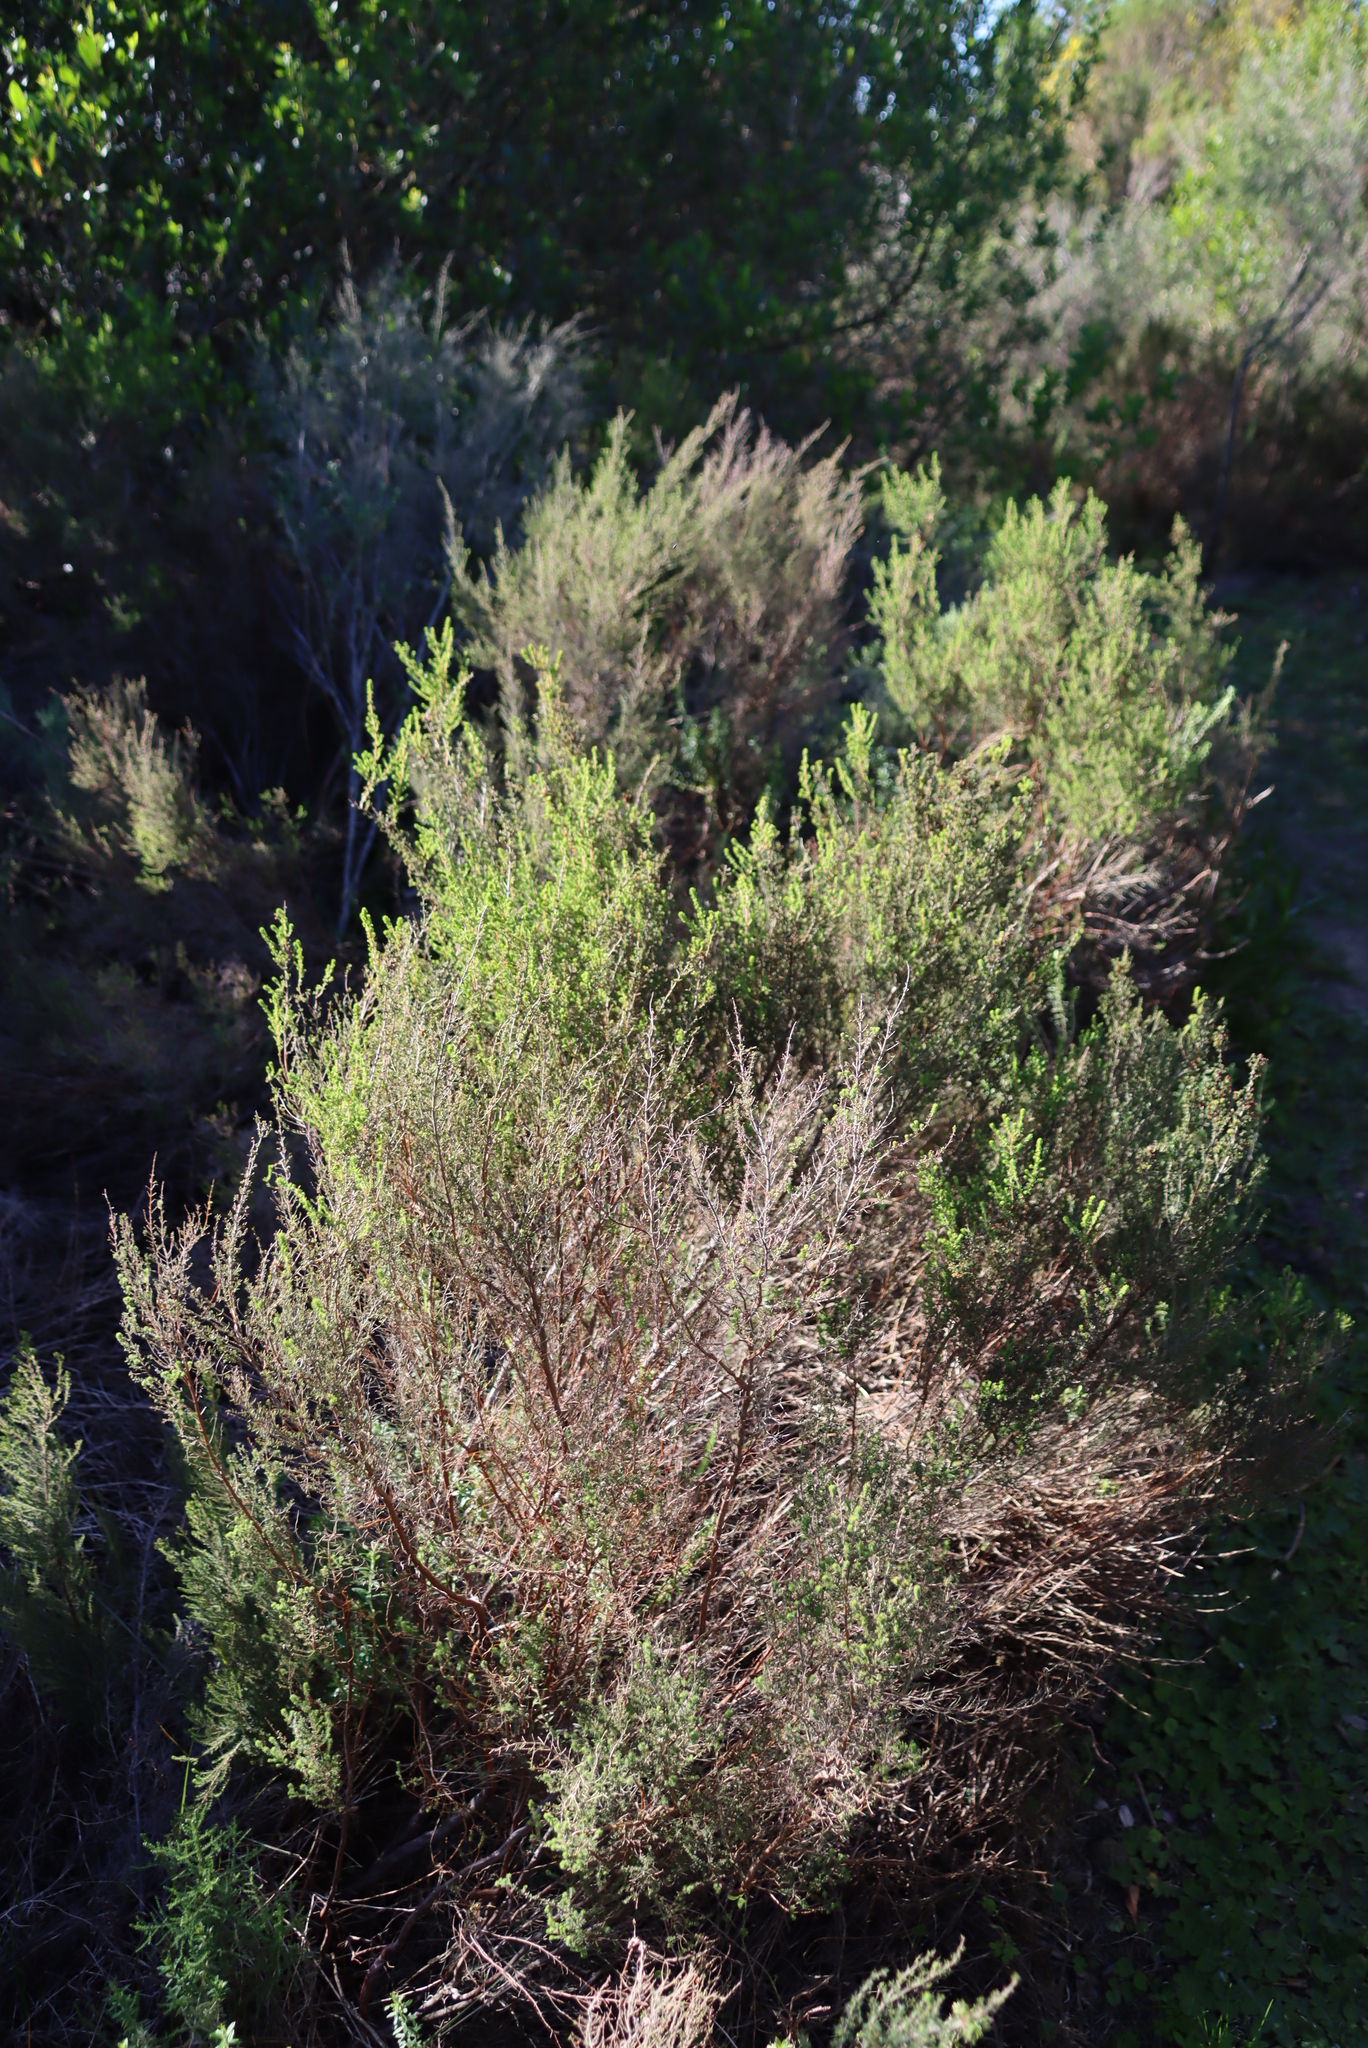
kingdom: Plantae
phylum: Tracheophyta
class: Magnoliopsida
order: Ericales
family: Ericaceae
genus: Erica
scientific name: Erica sparsa
